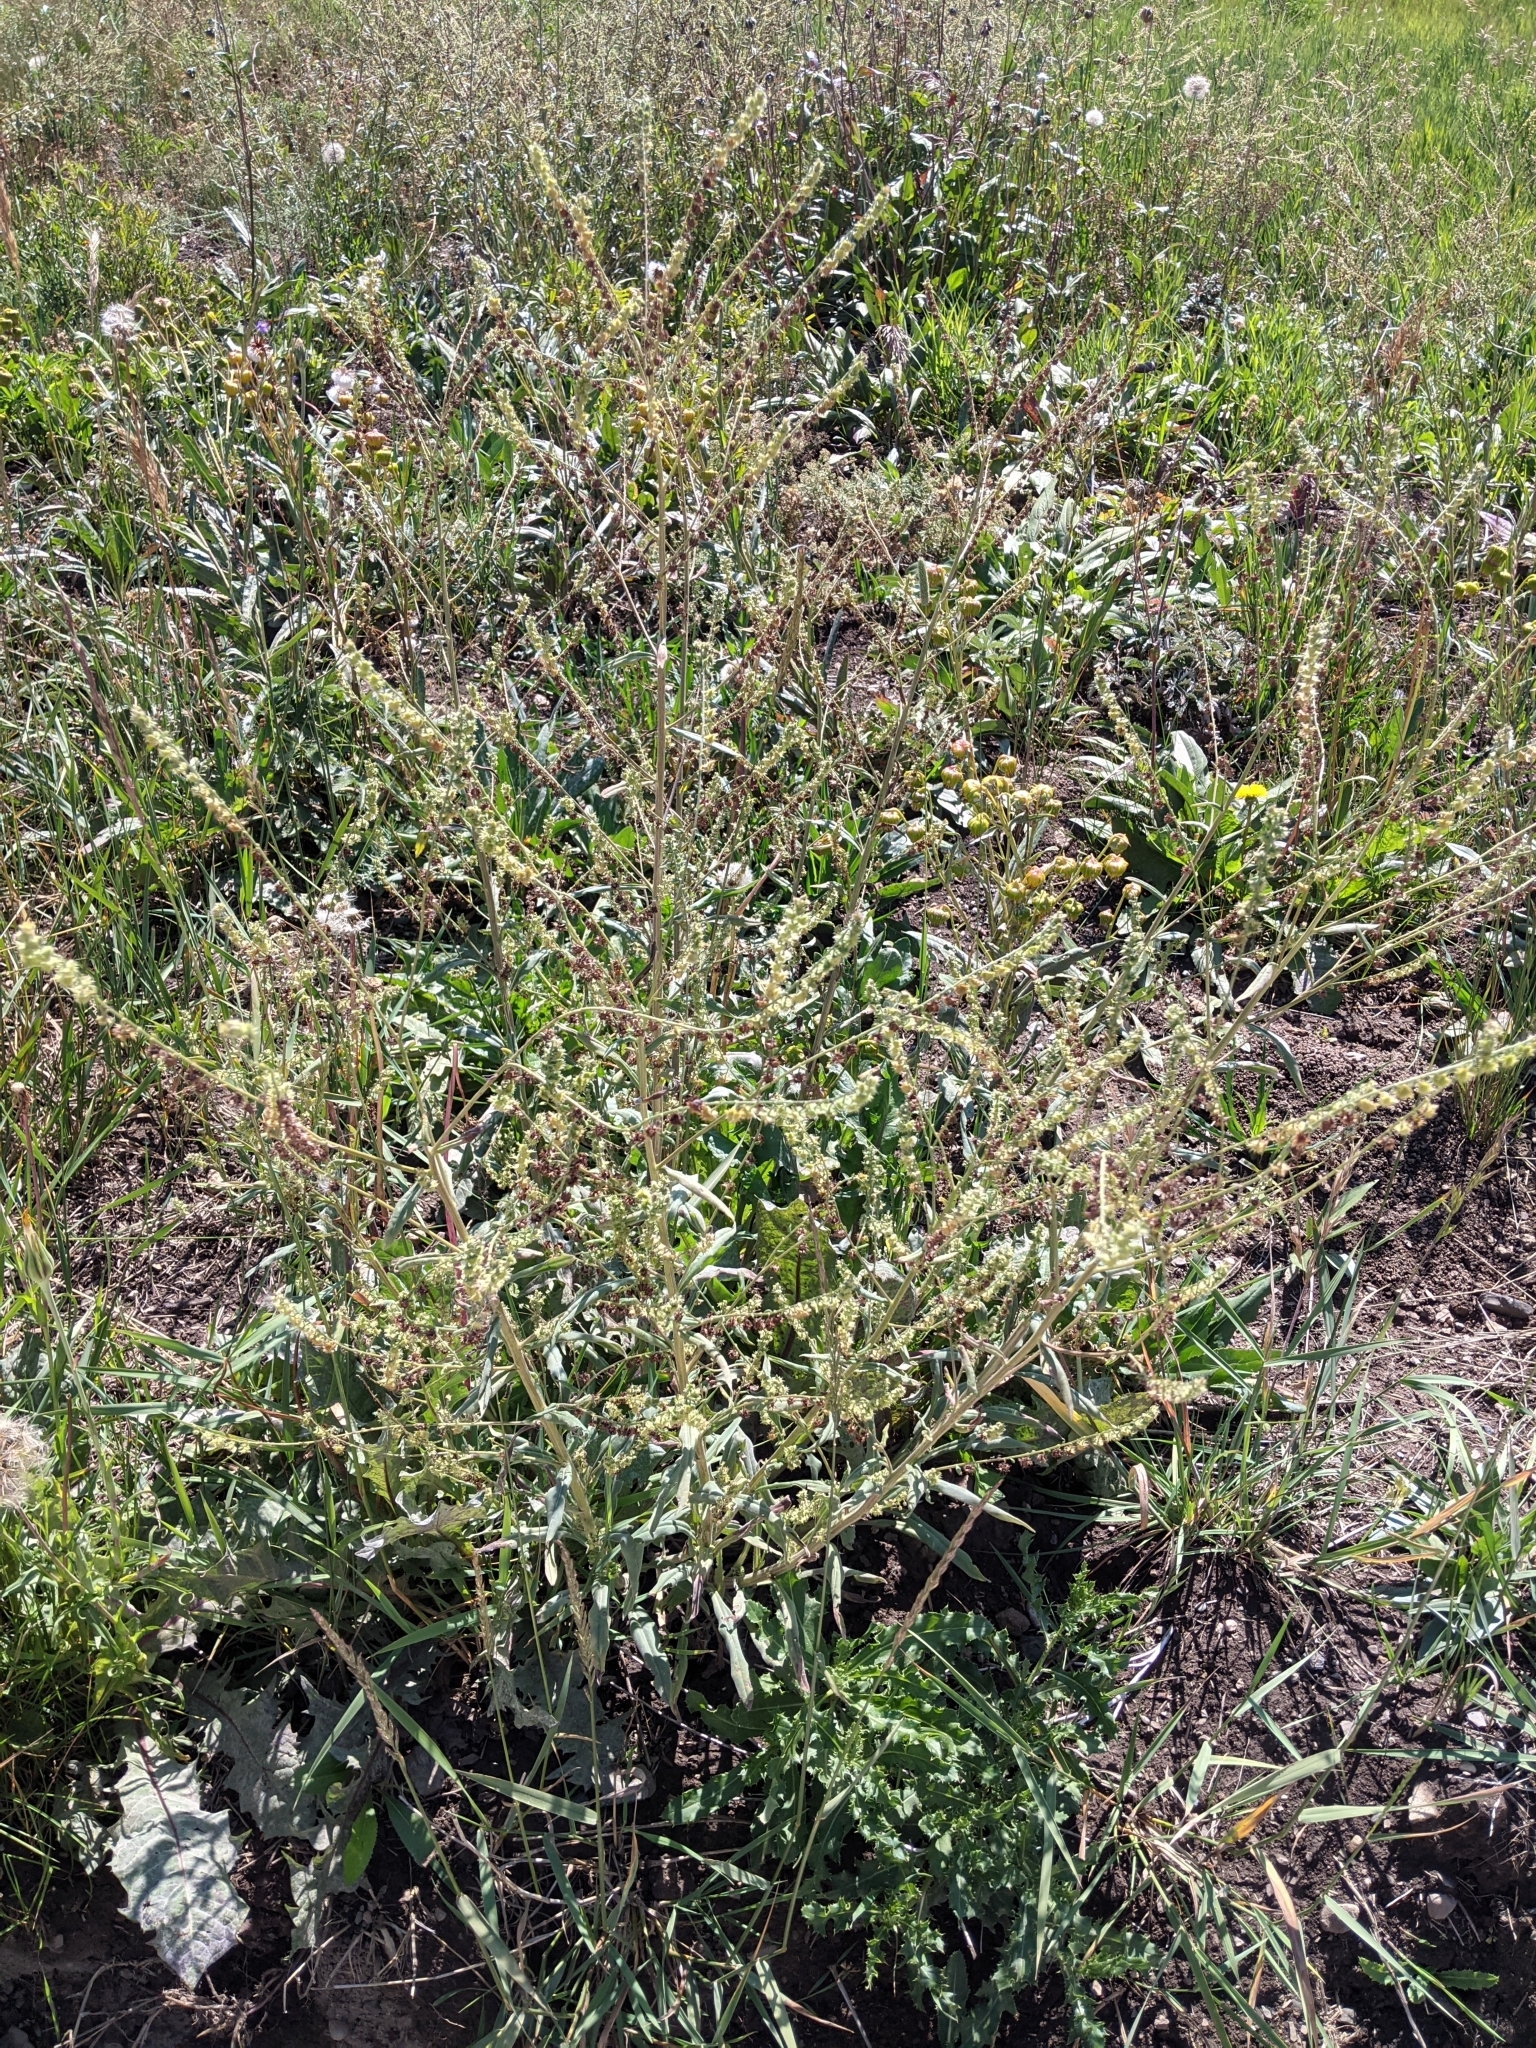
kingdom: Plantae
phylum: Tracheophyta
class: Magnoliopsida
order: Boraginales
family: Boraginaceae
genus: Hackelia
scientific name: Hackelia floribunda
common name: Large-flowered stickseed
